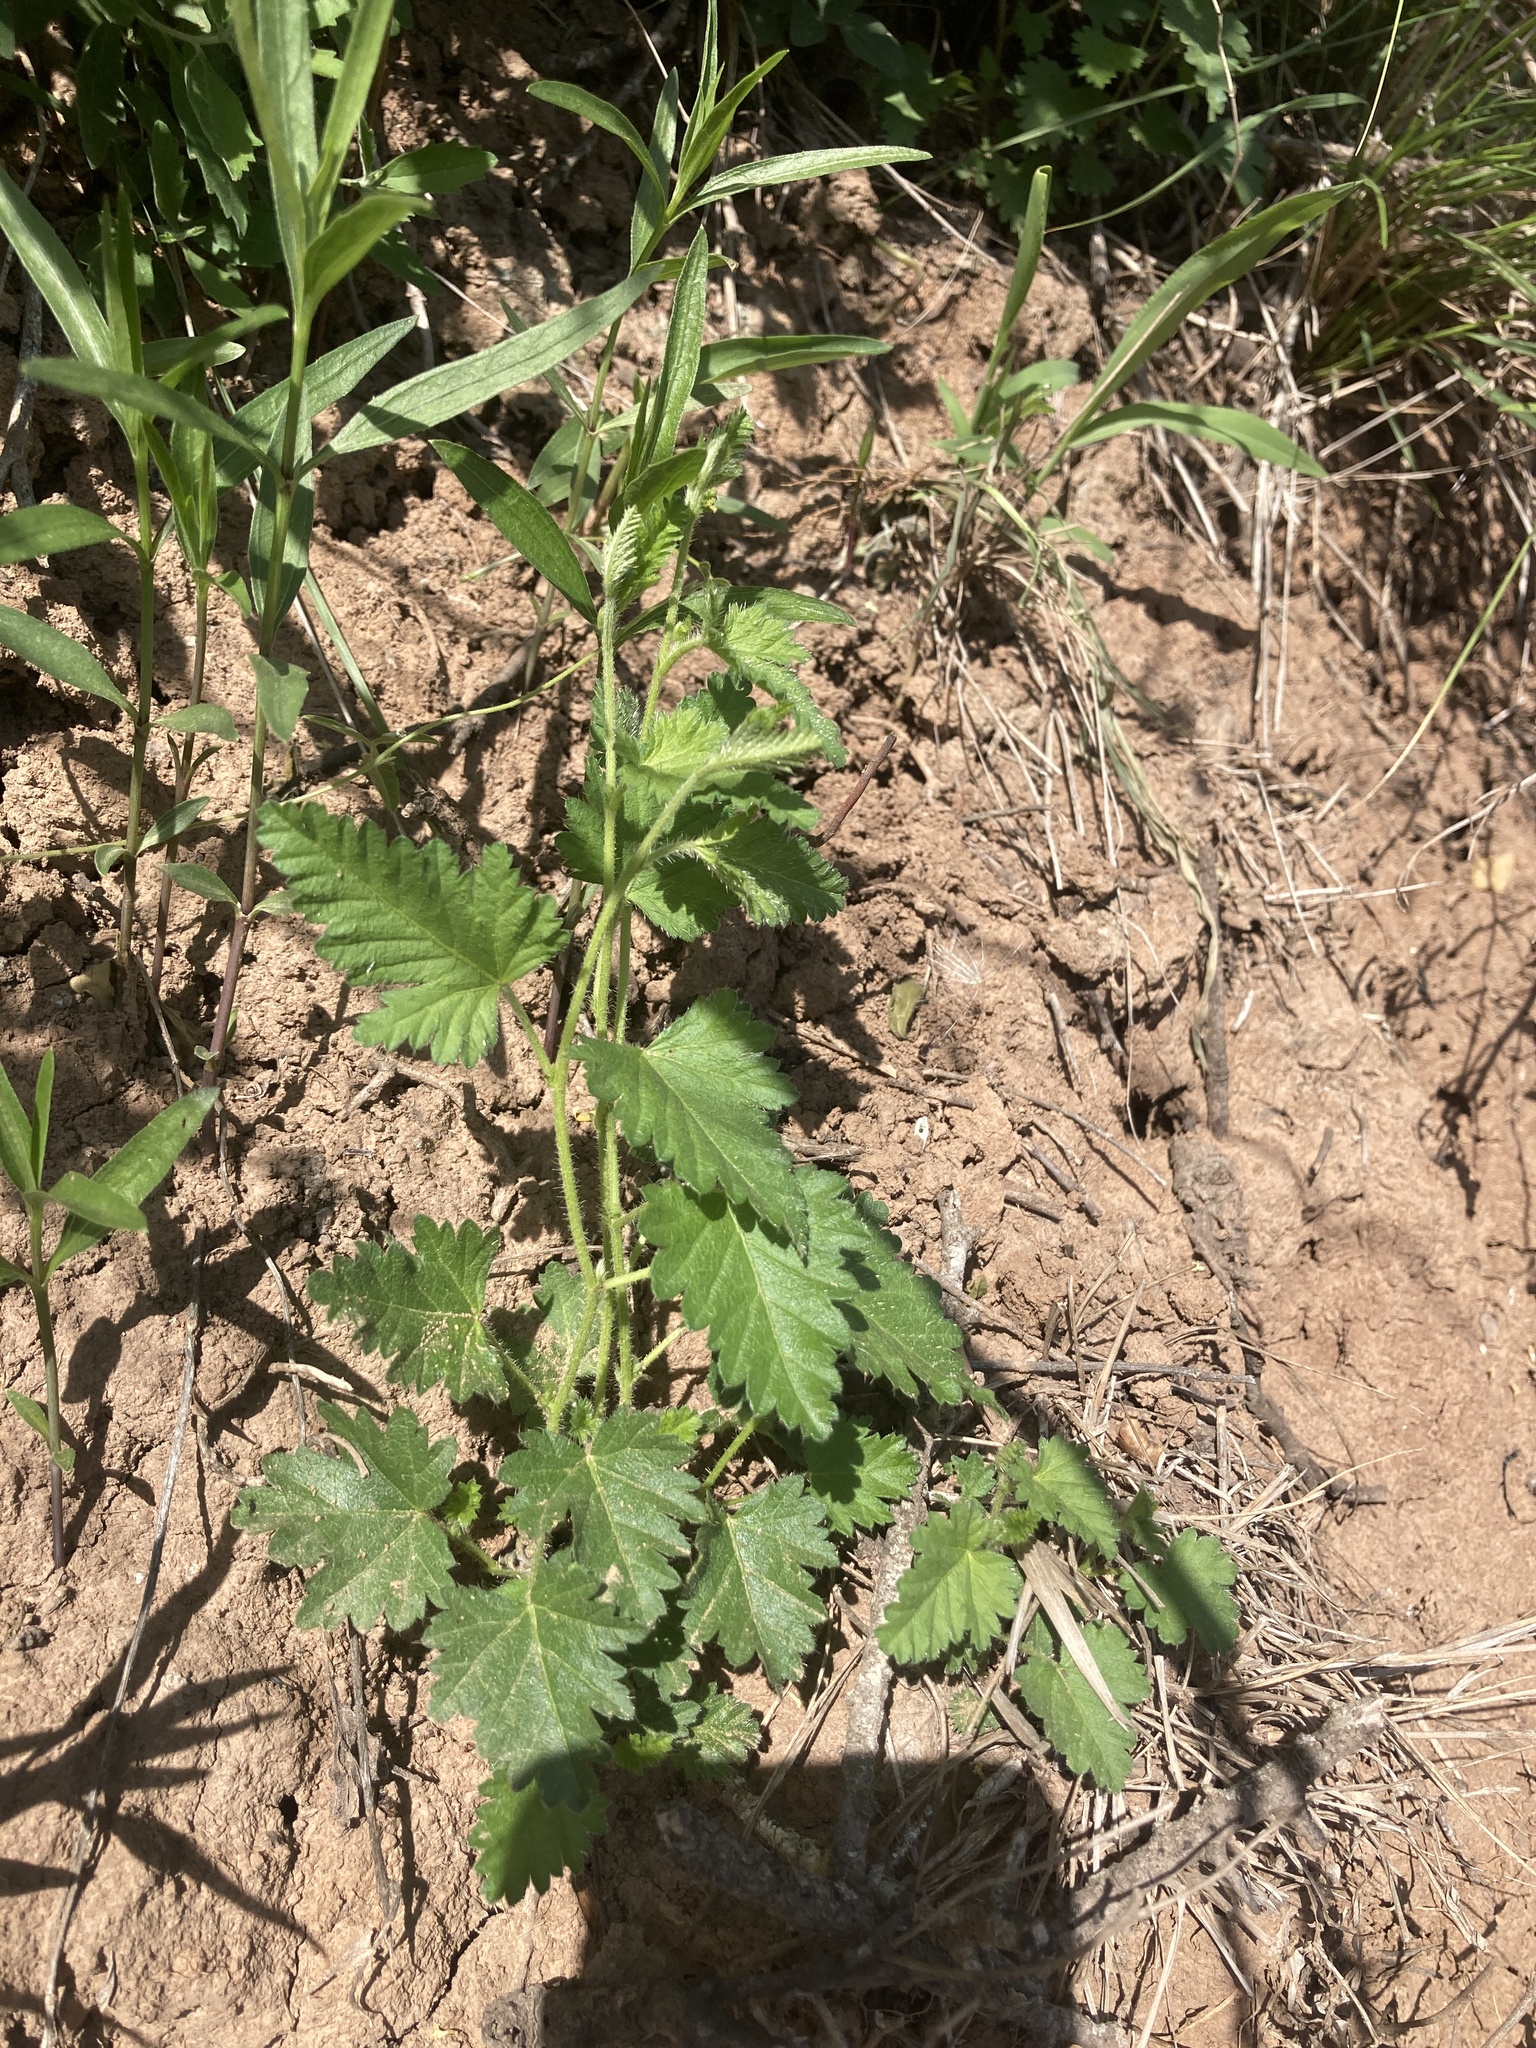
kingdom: Plantae
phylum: Tracheophyta
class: Magnoliopsida
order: Malpighiales
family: Euphorbiaceae
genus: Tragia
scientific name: Tragia geraniifolia
